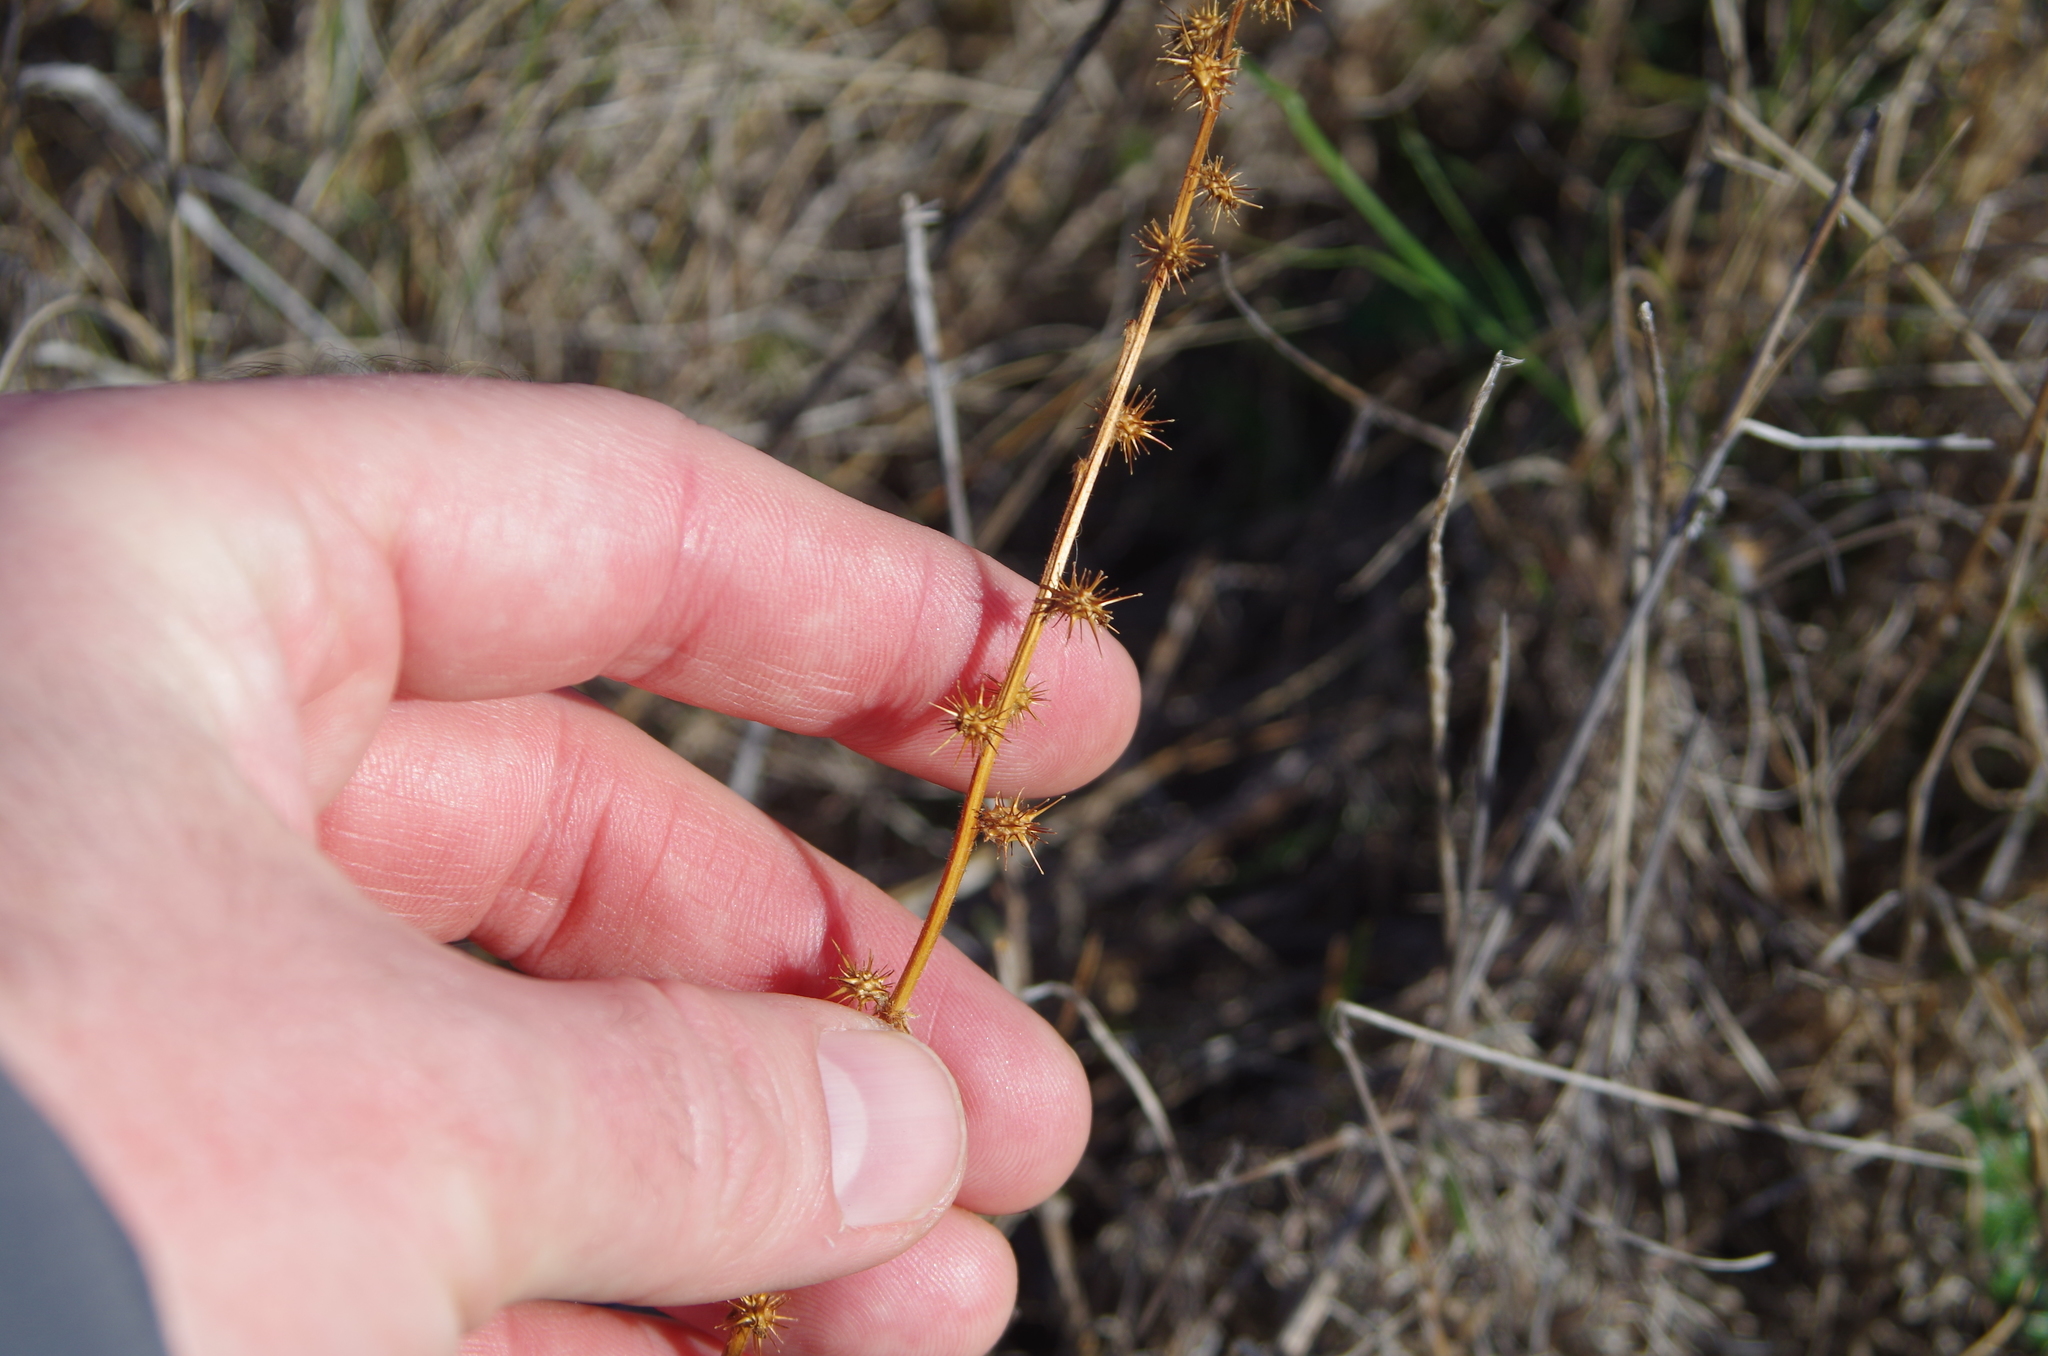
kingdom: Plantae
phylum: Tracheophyta
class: Magnoliopsida
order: Rosales
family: Rosaceae
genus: Acaena
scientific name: Acaena agnipila
